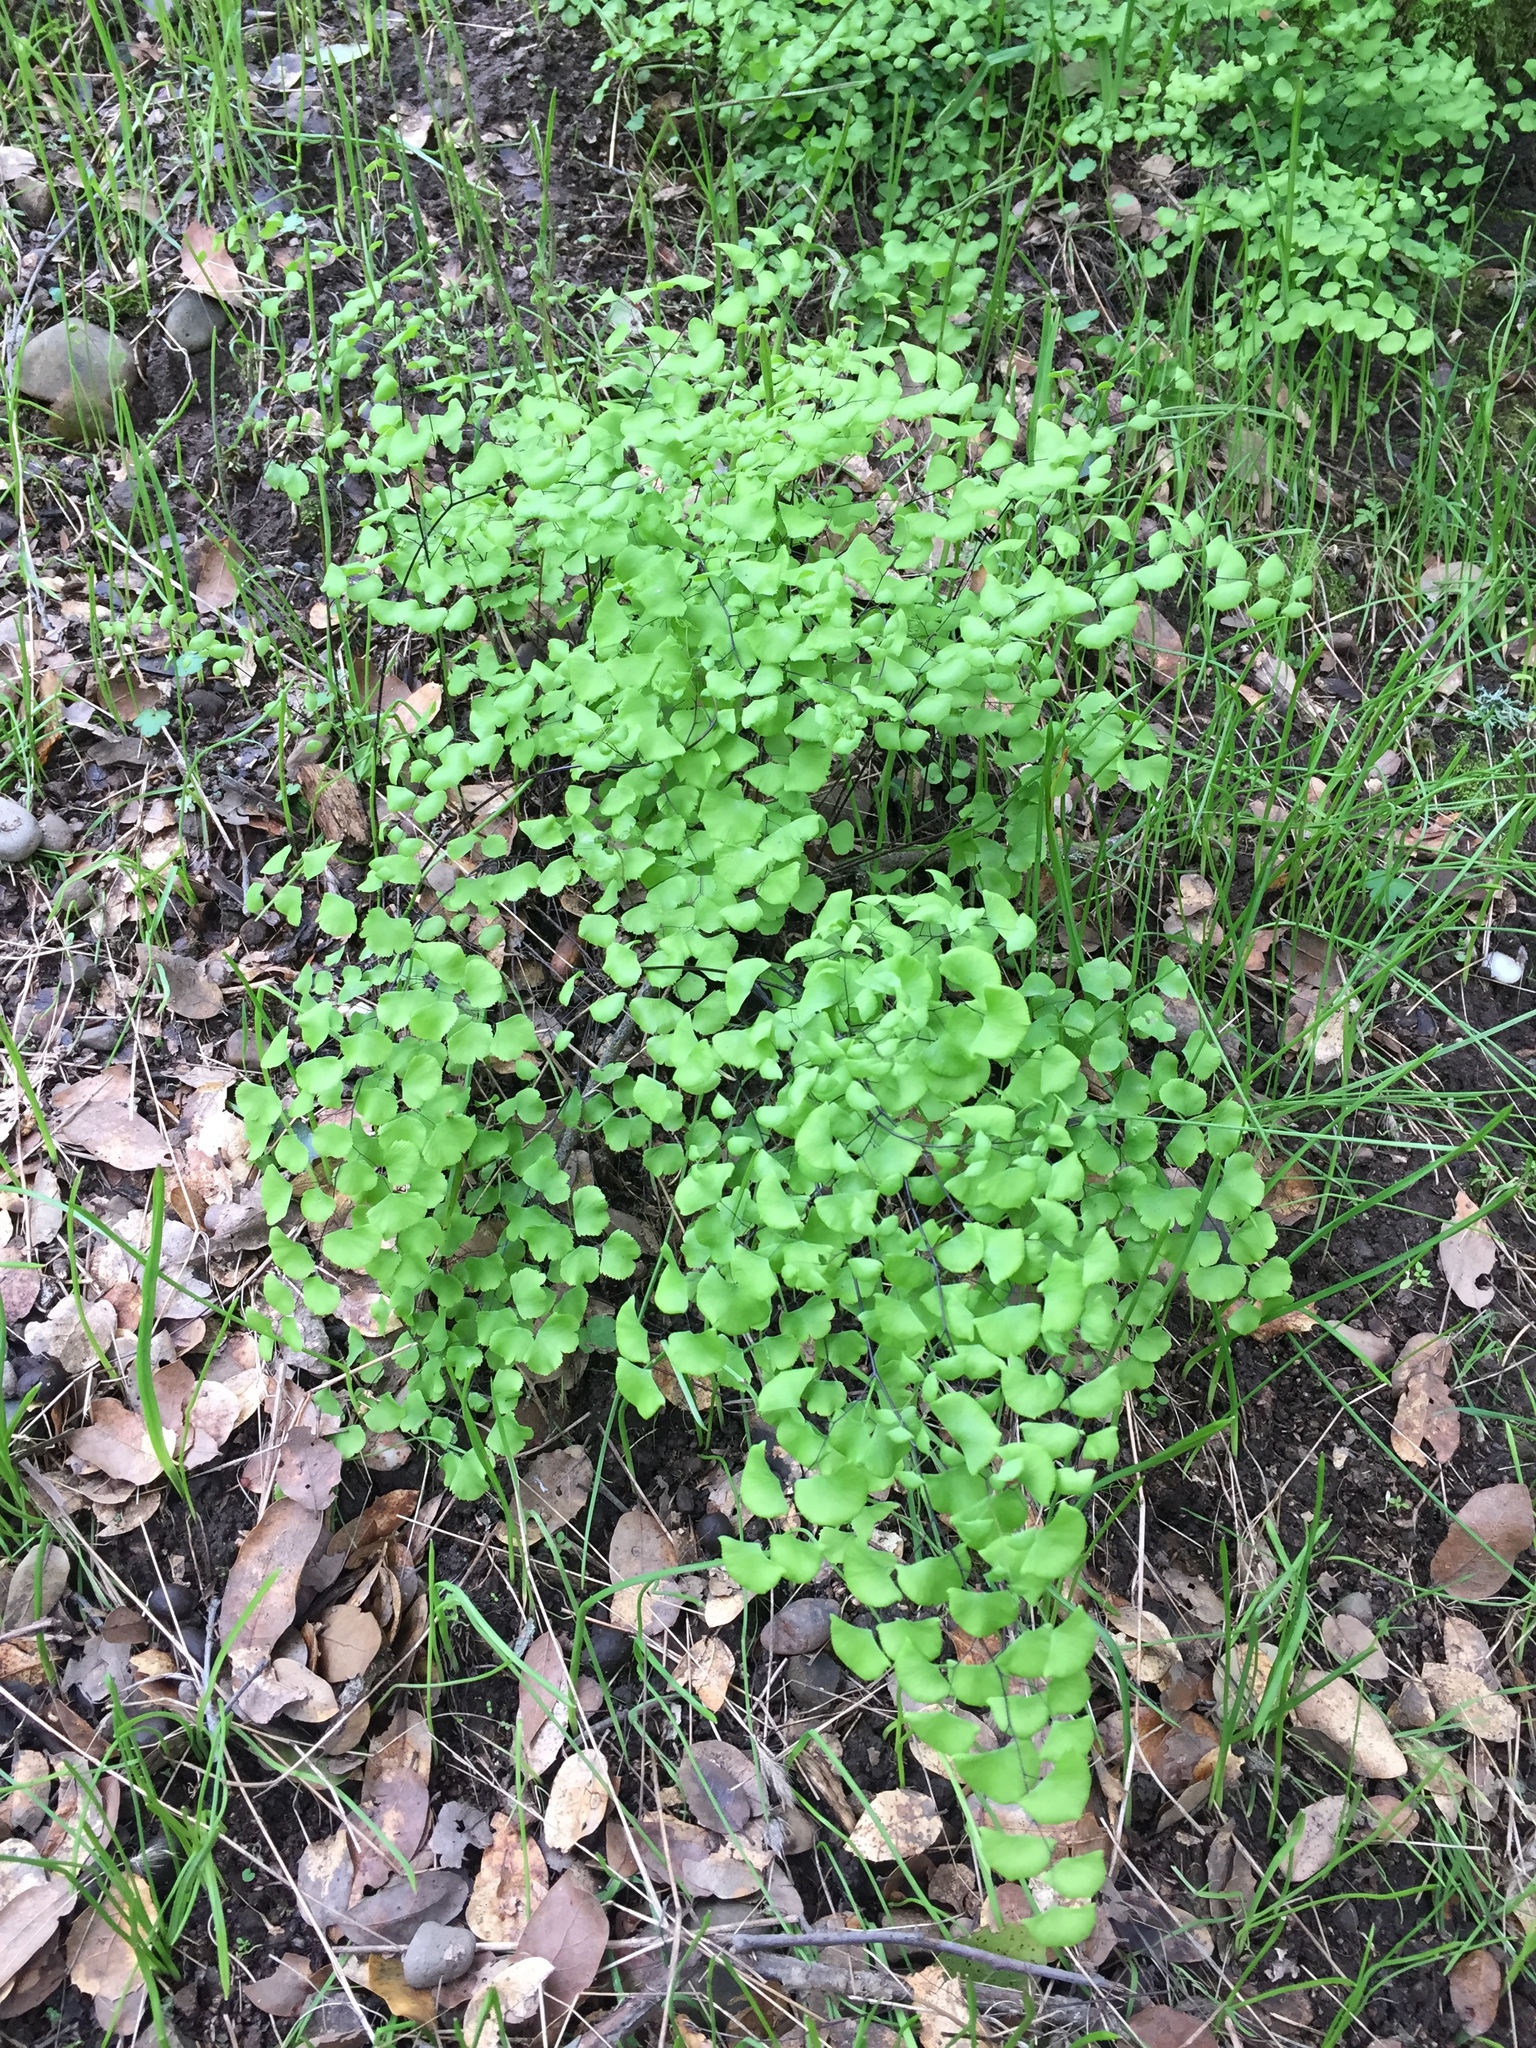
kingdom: Plantae
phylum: Tracheophyta
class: Polypodiopsida
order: Polypodiales
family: Pteridaceae
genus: Adiantum
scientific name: Adiantum jordanii
